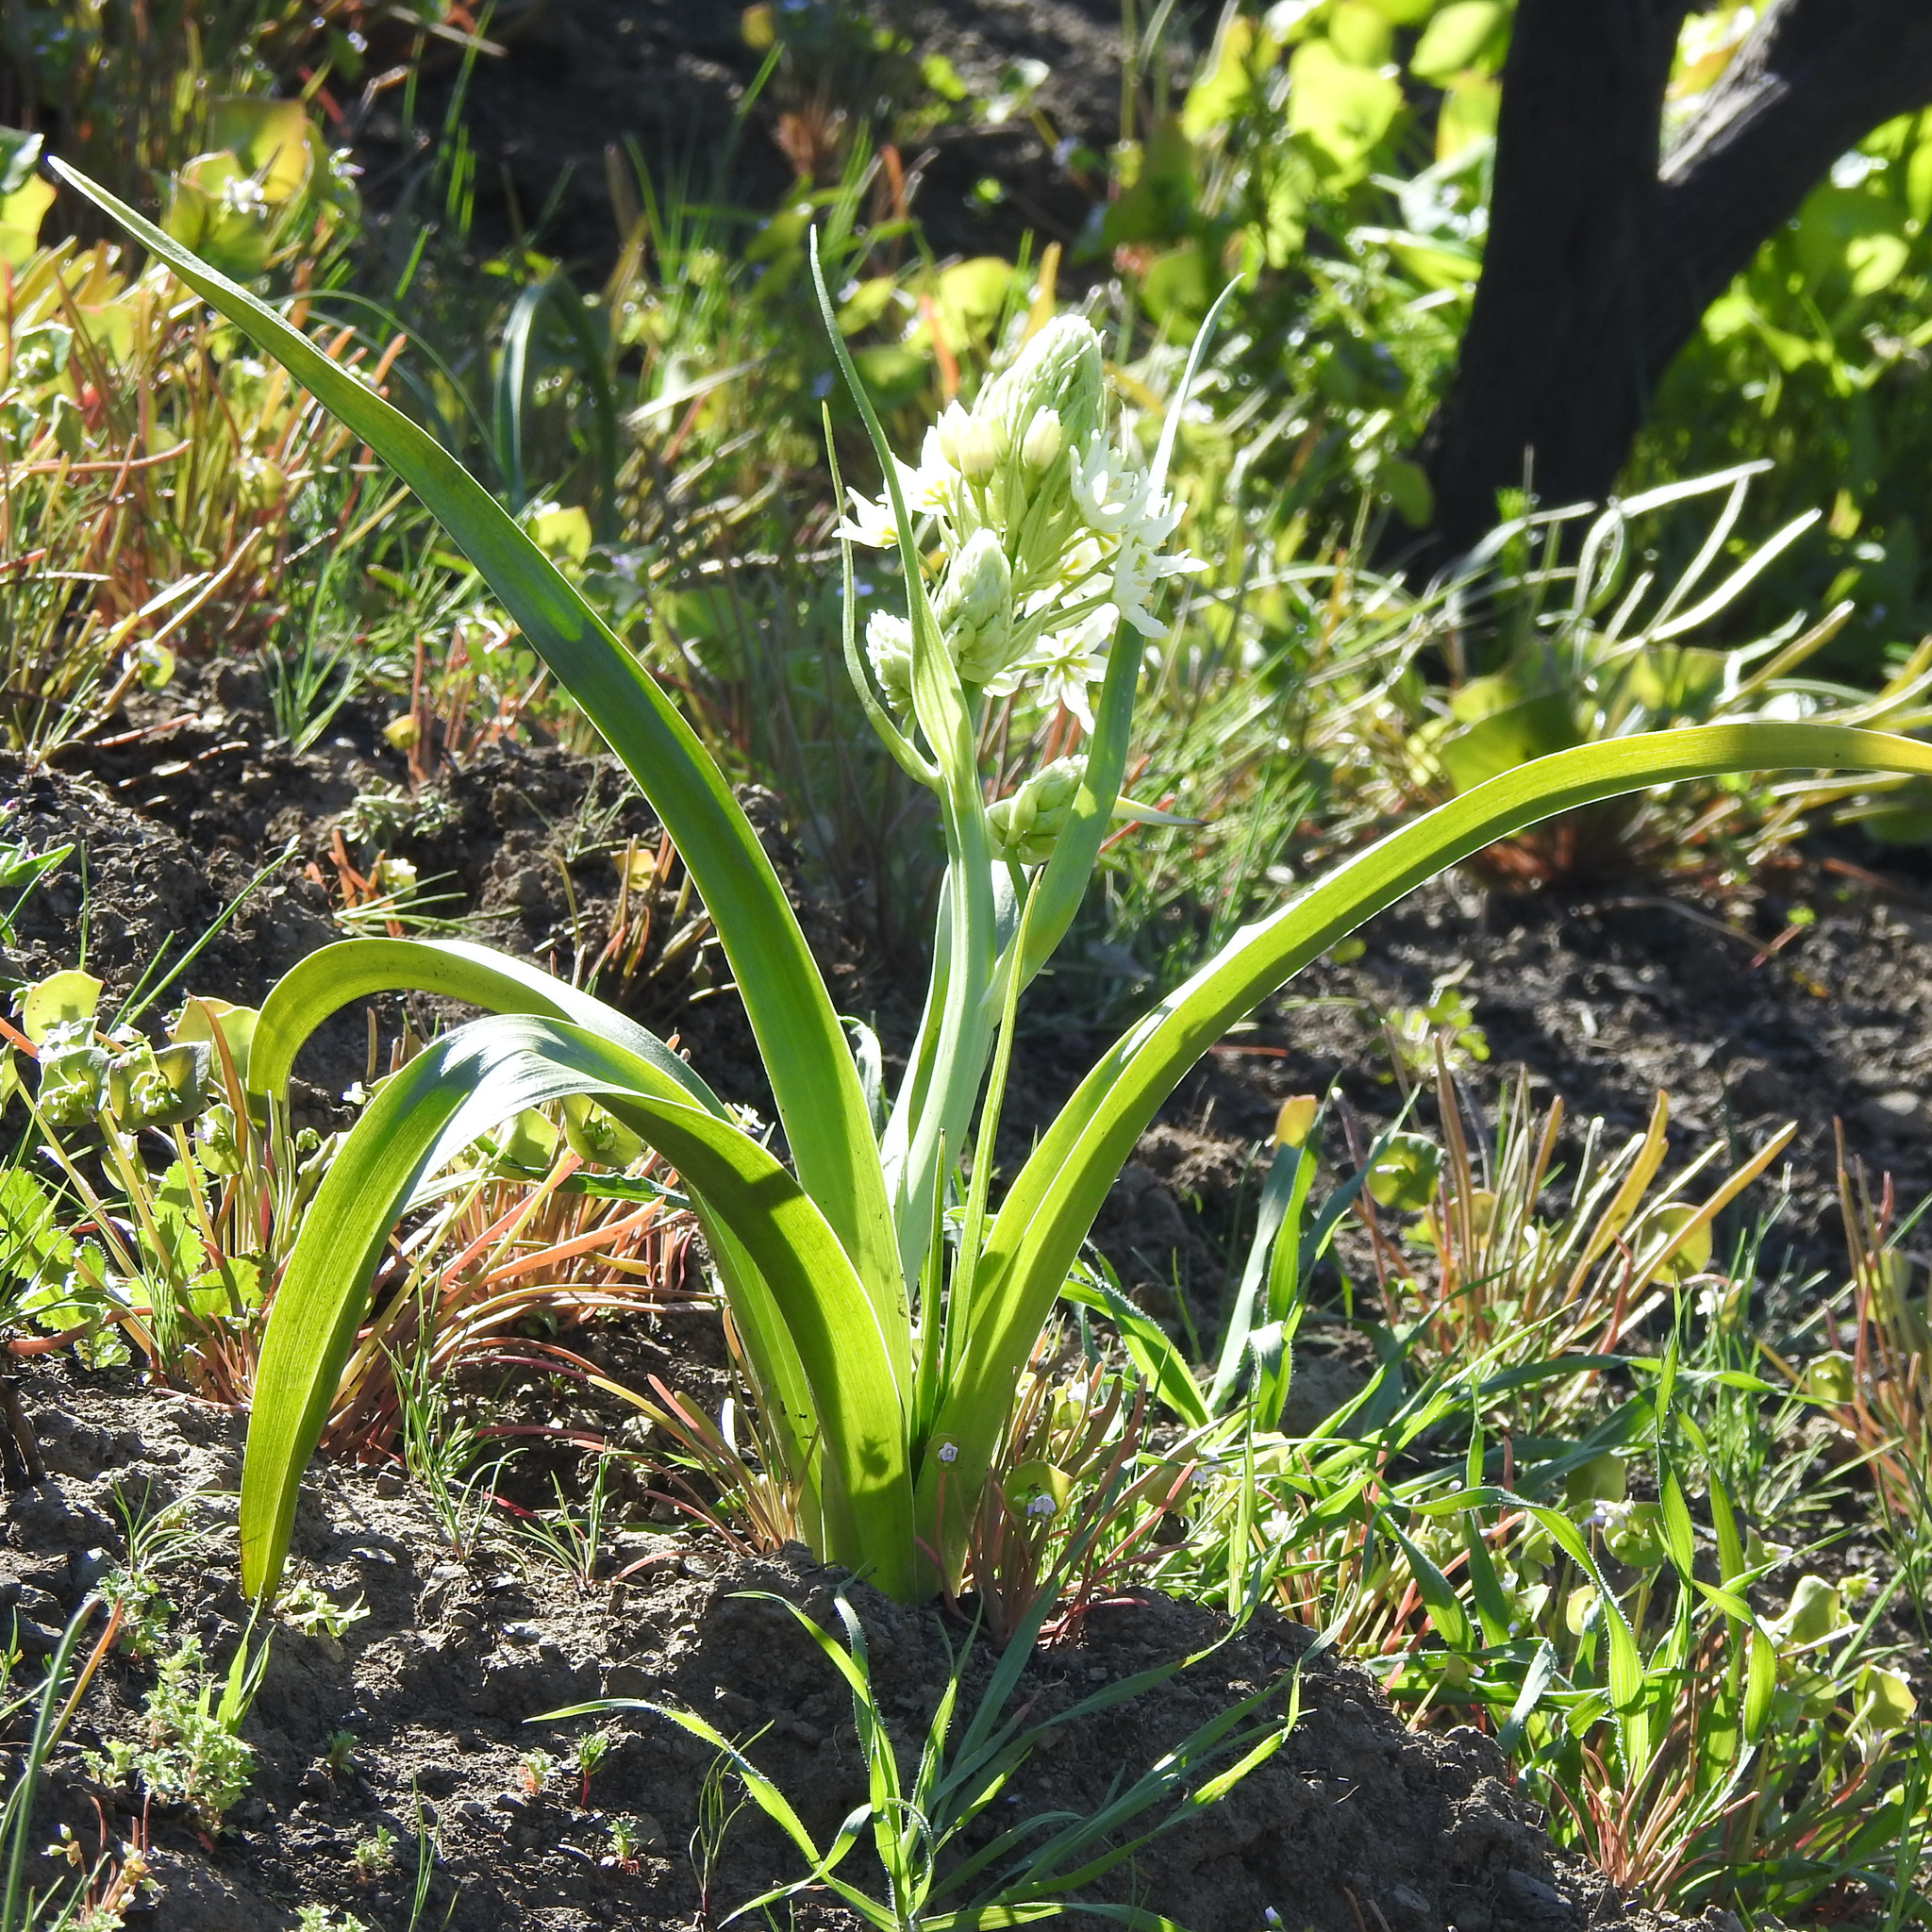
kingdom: Plantae
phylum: Tracheophyta
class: Liliopsida
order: Liliales
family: Melanthiaceae
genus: Toxicoscordion
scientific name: Toxicoscordion fremontii
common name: Fremont's death camas
